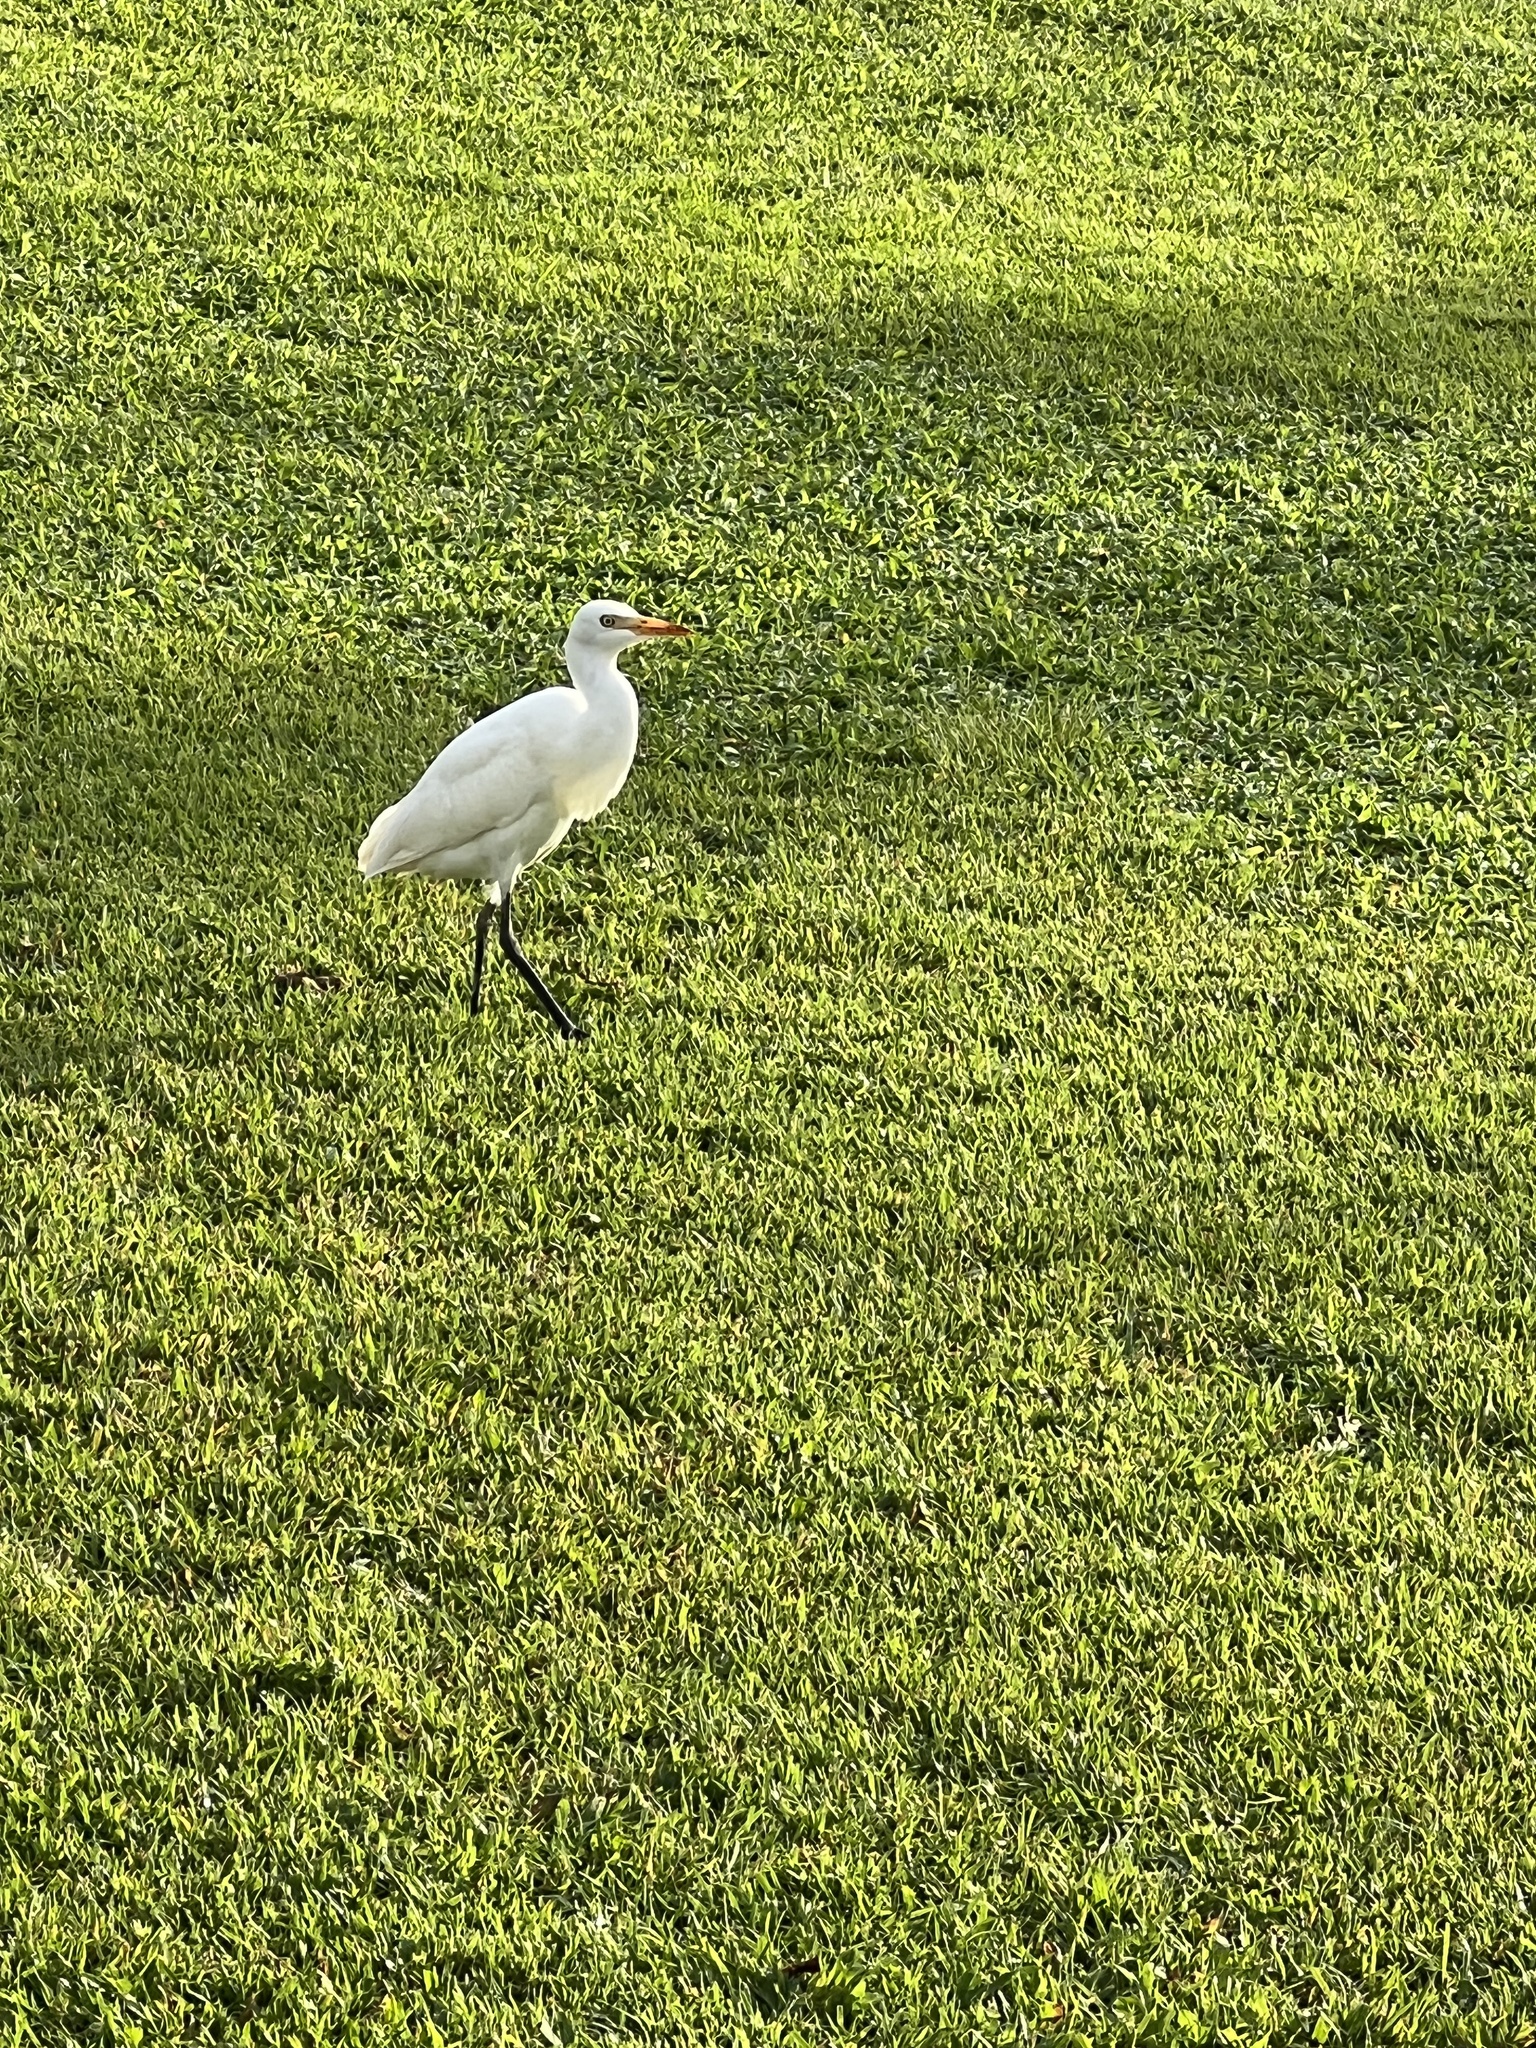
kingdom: Animalia
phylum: Chordata
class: Aves
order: Pelecaniformes
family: Ardeidae
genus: Bubulcus
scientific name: Bubulcus ibis
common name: Cattle egret
